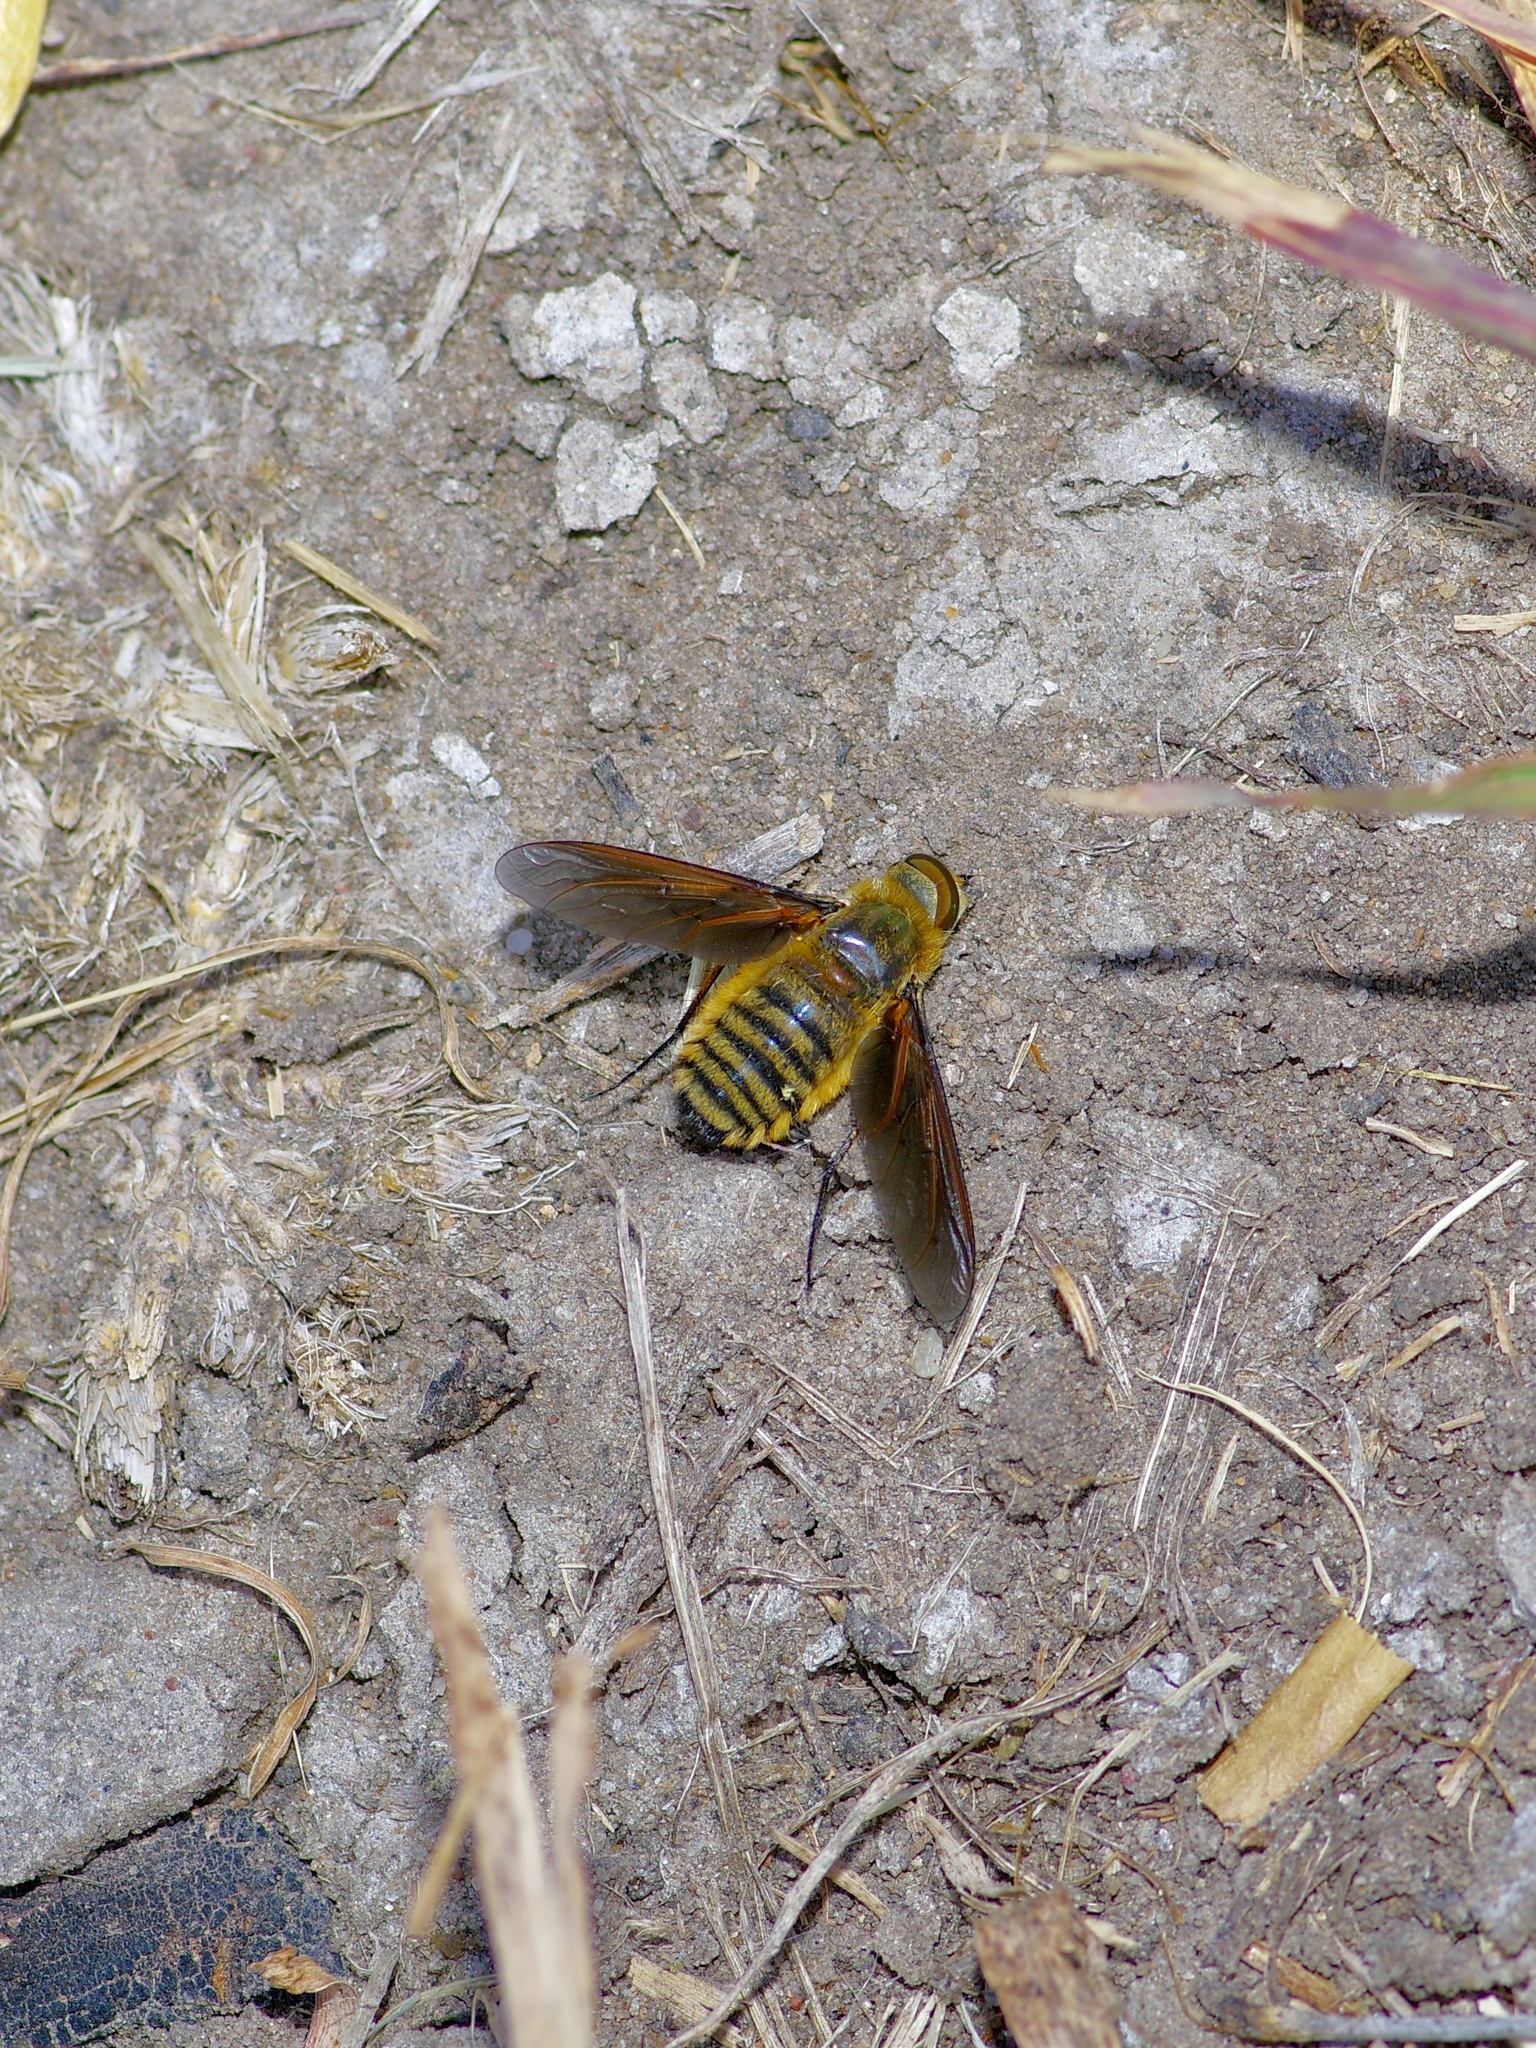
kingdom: Animalia
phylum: Arthropoda
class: Insecta
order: Diptera
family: Bombyliidae
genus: Poecilanthrax
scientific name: Poecilanthrax lucifer
